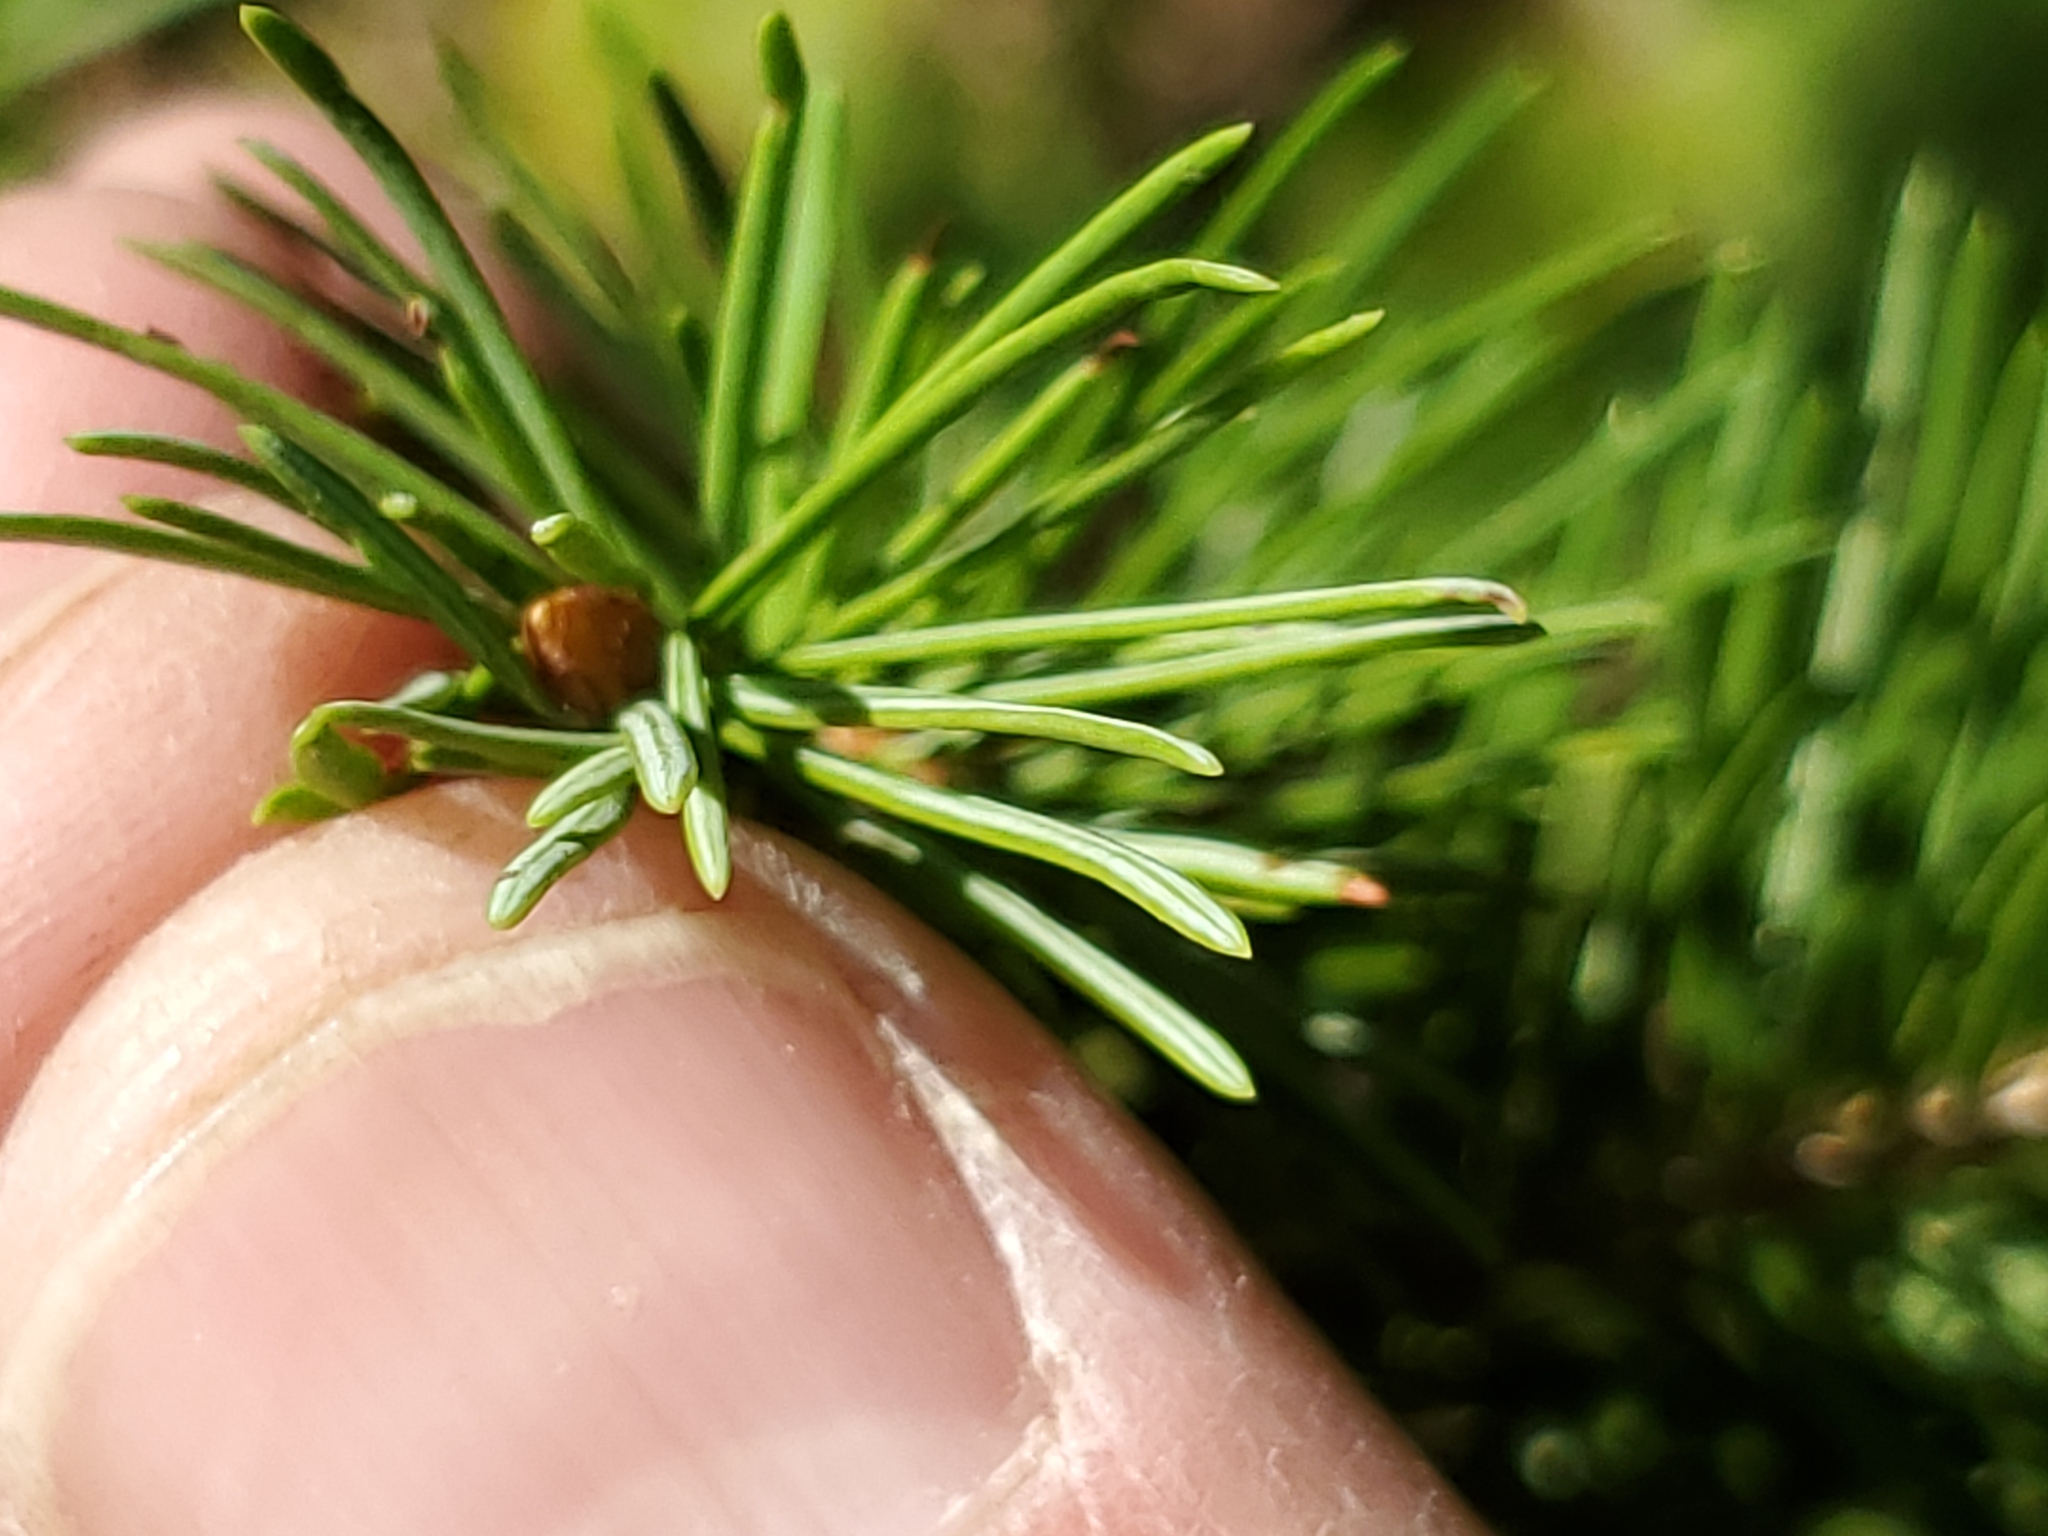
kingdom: Plantae
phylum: Tracheophyta
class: Pinopsida
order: Pinales
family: Pinaceae
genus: Pseudotsuga
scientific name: Pseudotsuga menziesii
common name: Douglas fir
